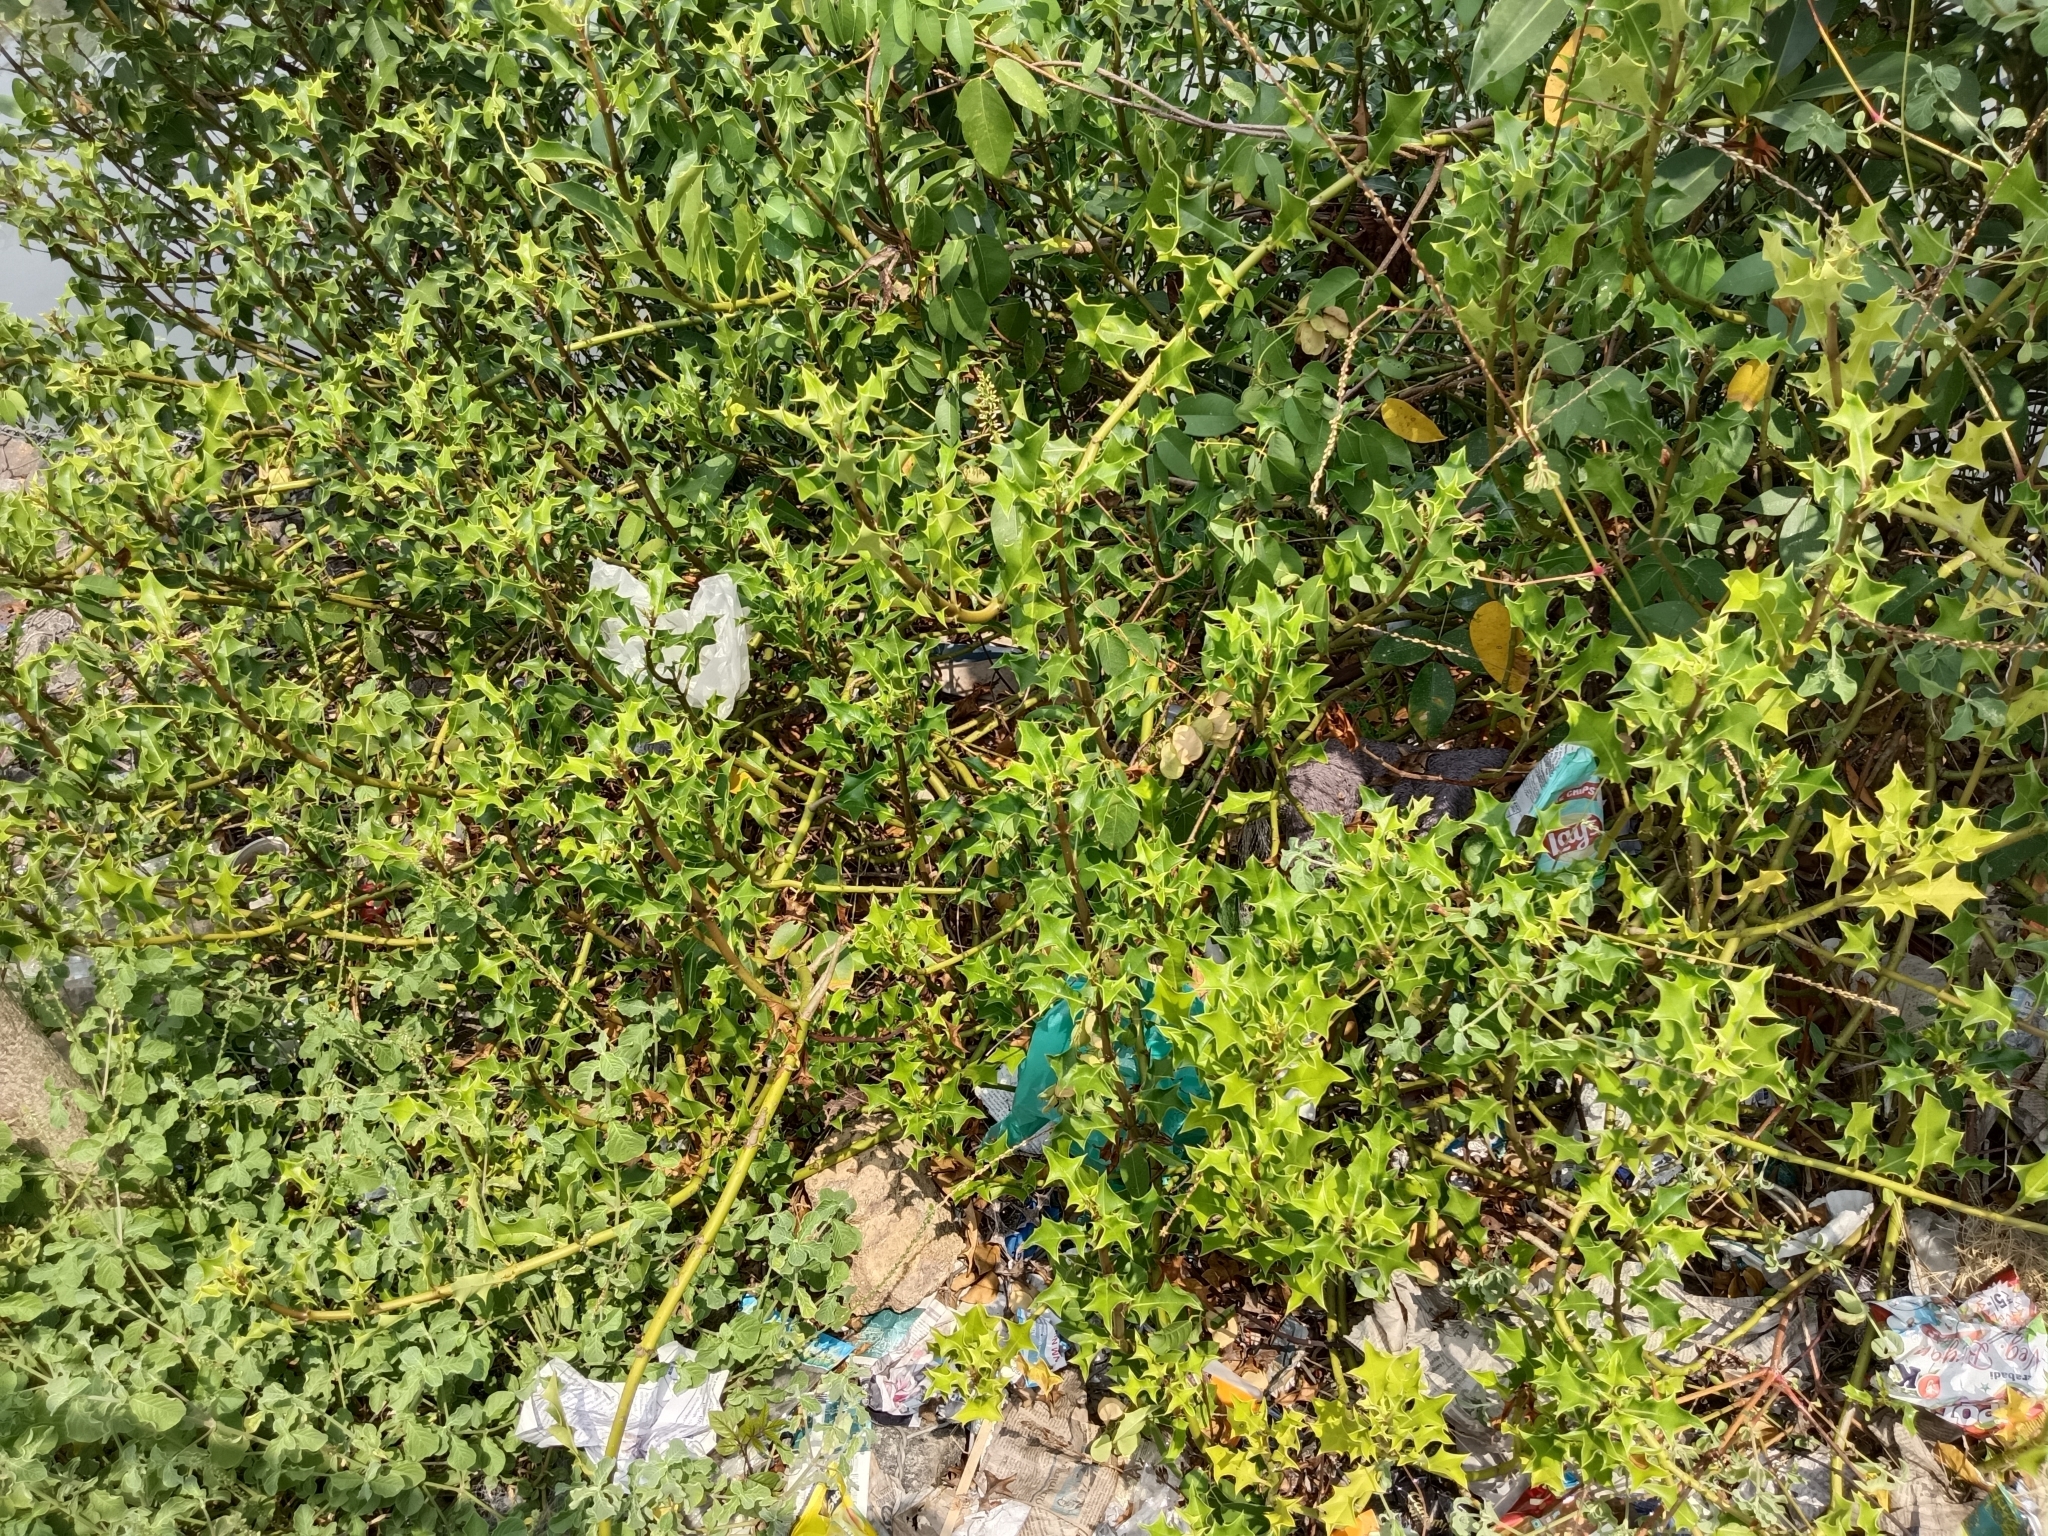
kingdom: Plantae
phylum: Tracheophyta
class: Magnoliopsida
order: Lamiales
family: Acanthaceae
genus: Acanthus
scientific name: Acanthus ilicifolius
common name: Holy mangrove
